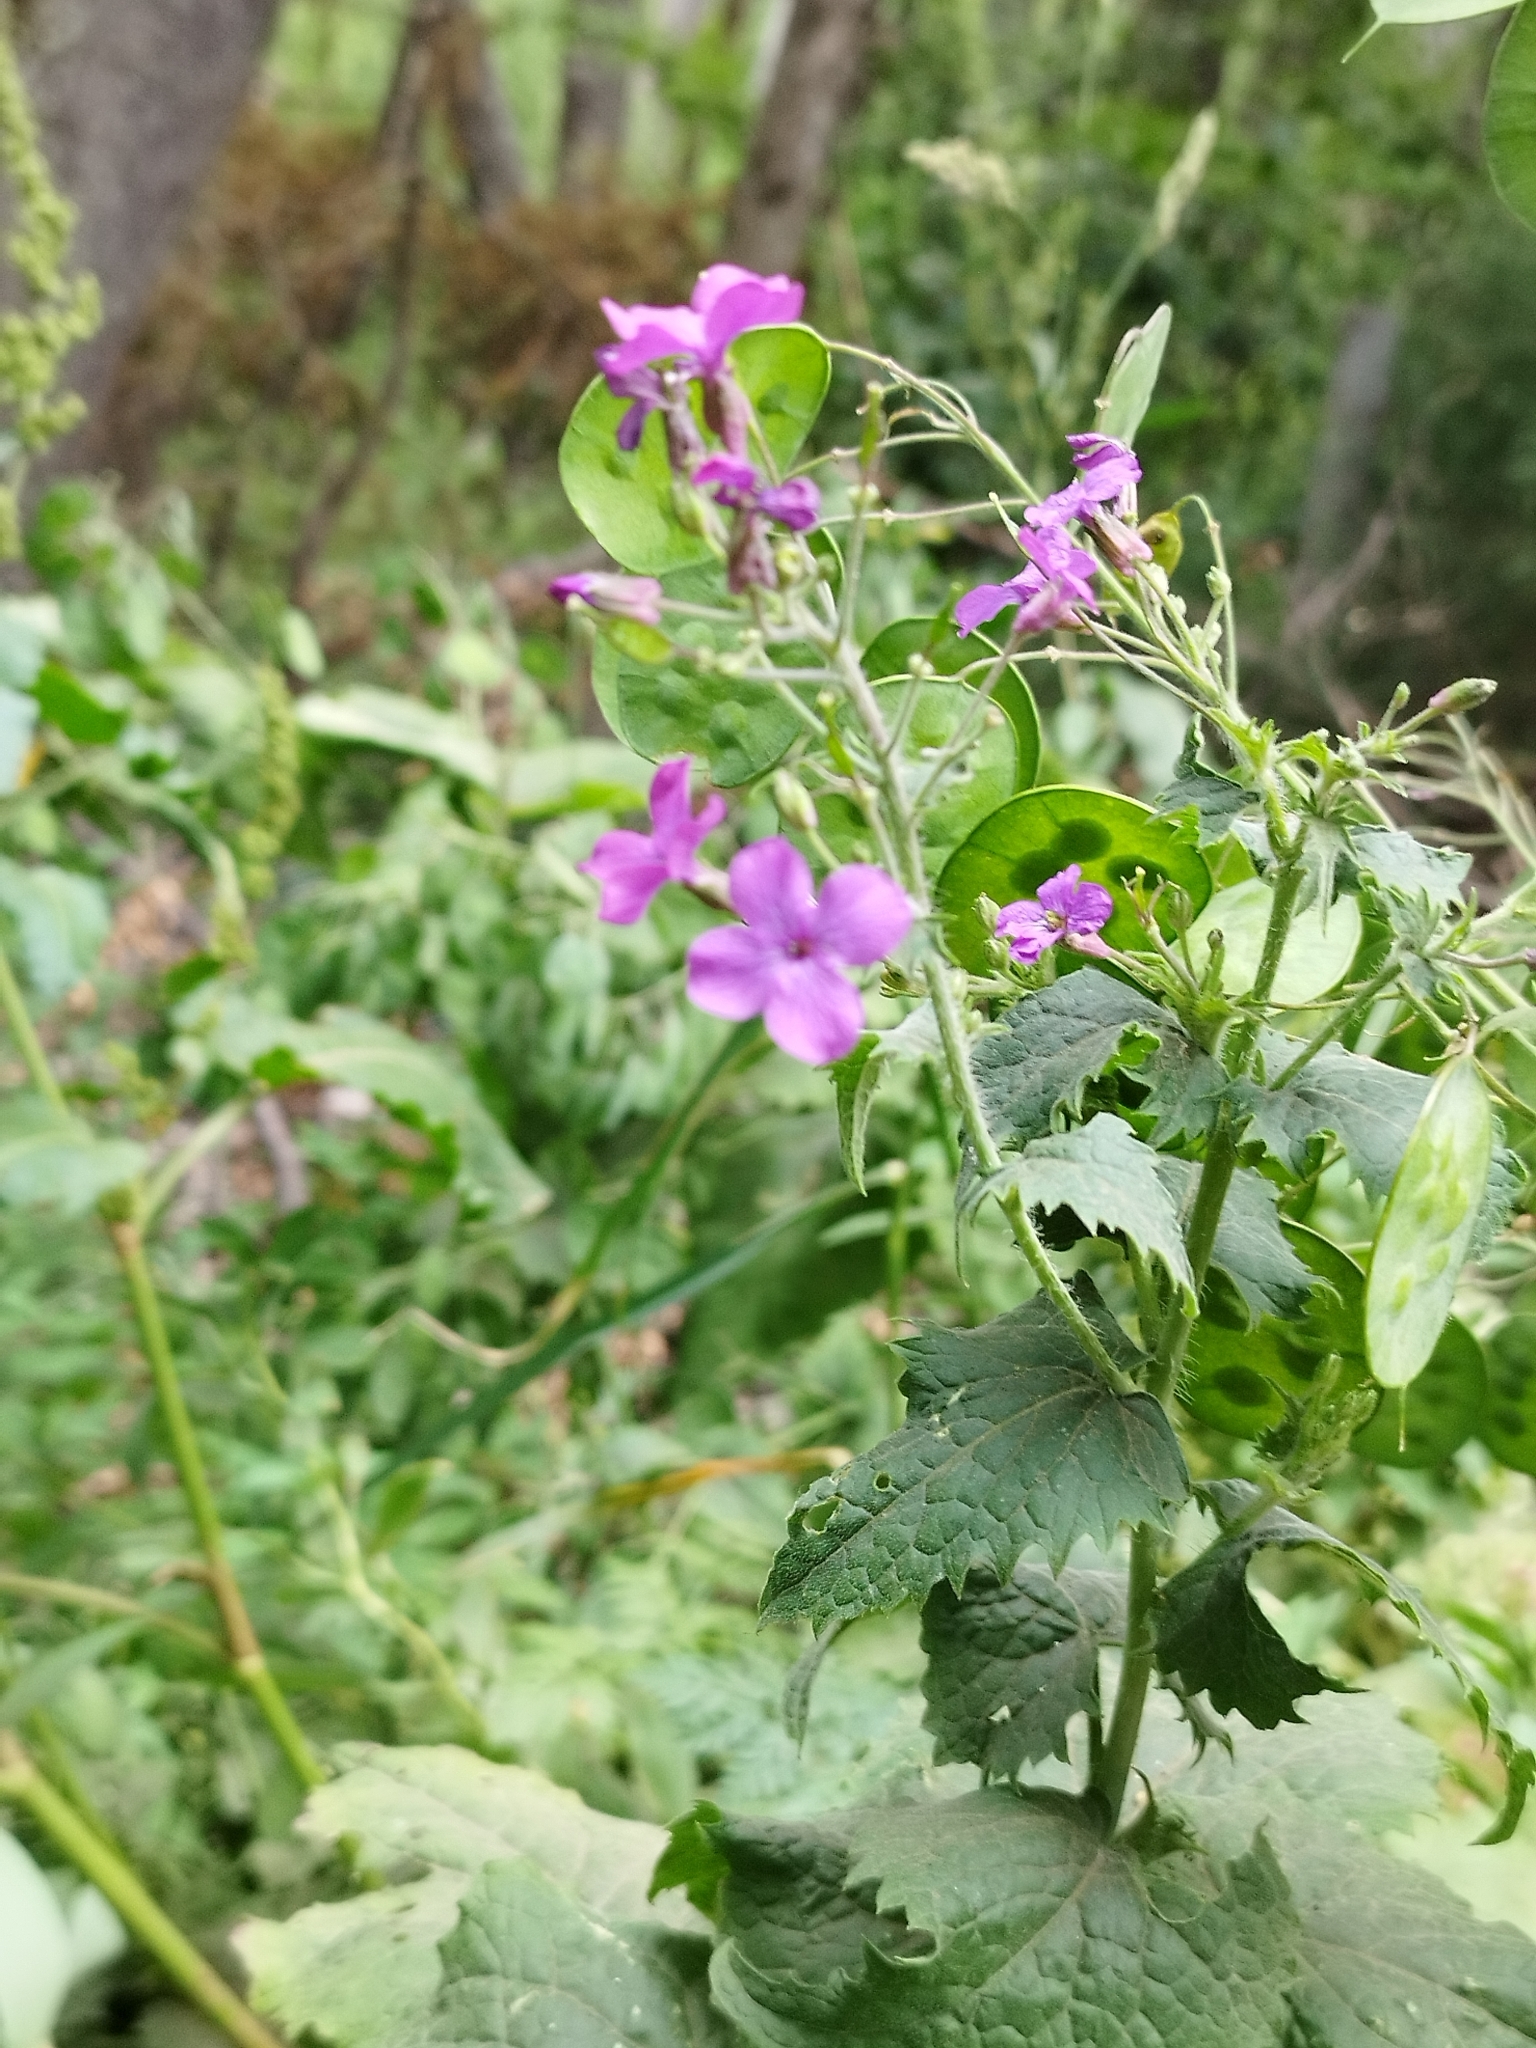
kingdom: Plantae
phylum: Tracheophyta
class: Magnoliopsida
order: Brassicales
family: Brassicaceae
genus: Lunaria
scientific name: Lunaria annua
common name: Honesty
